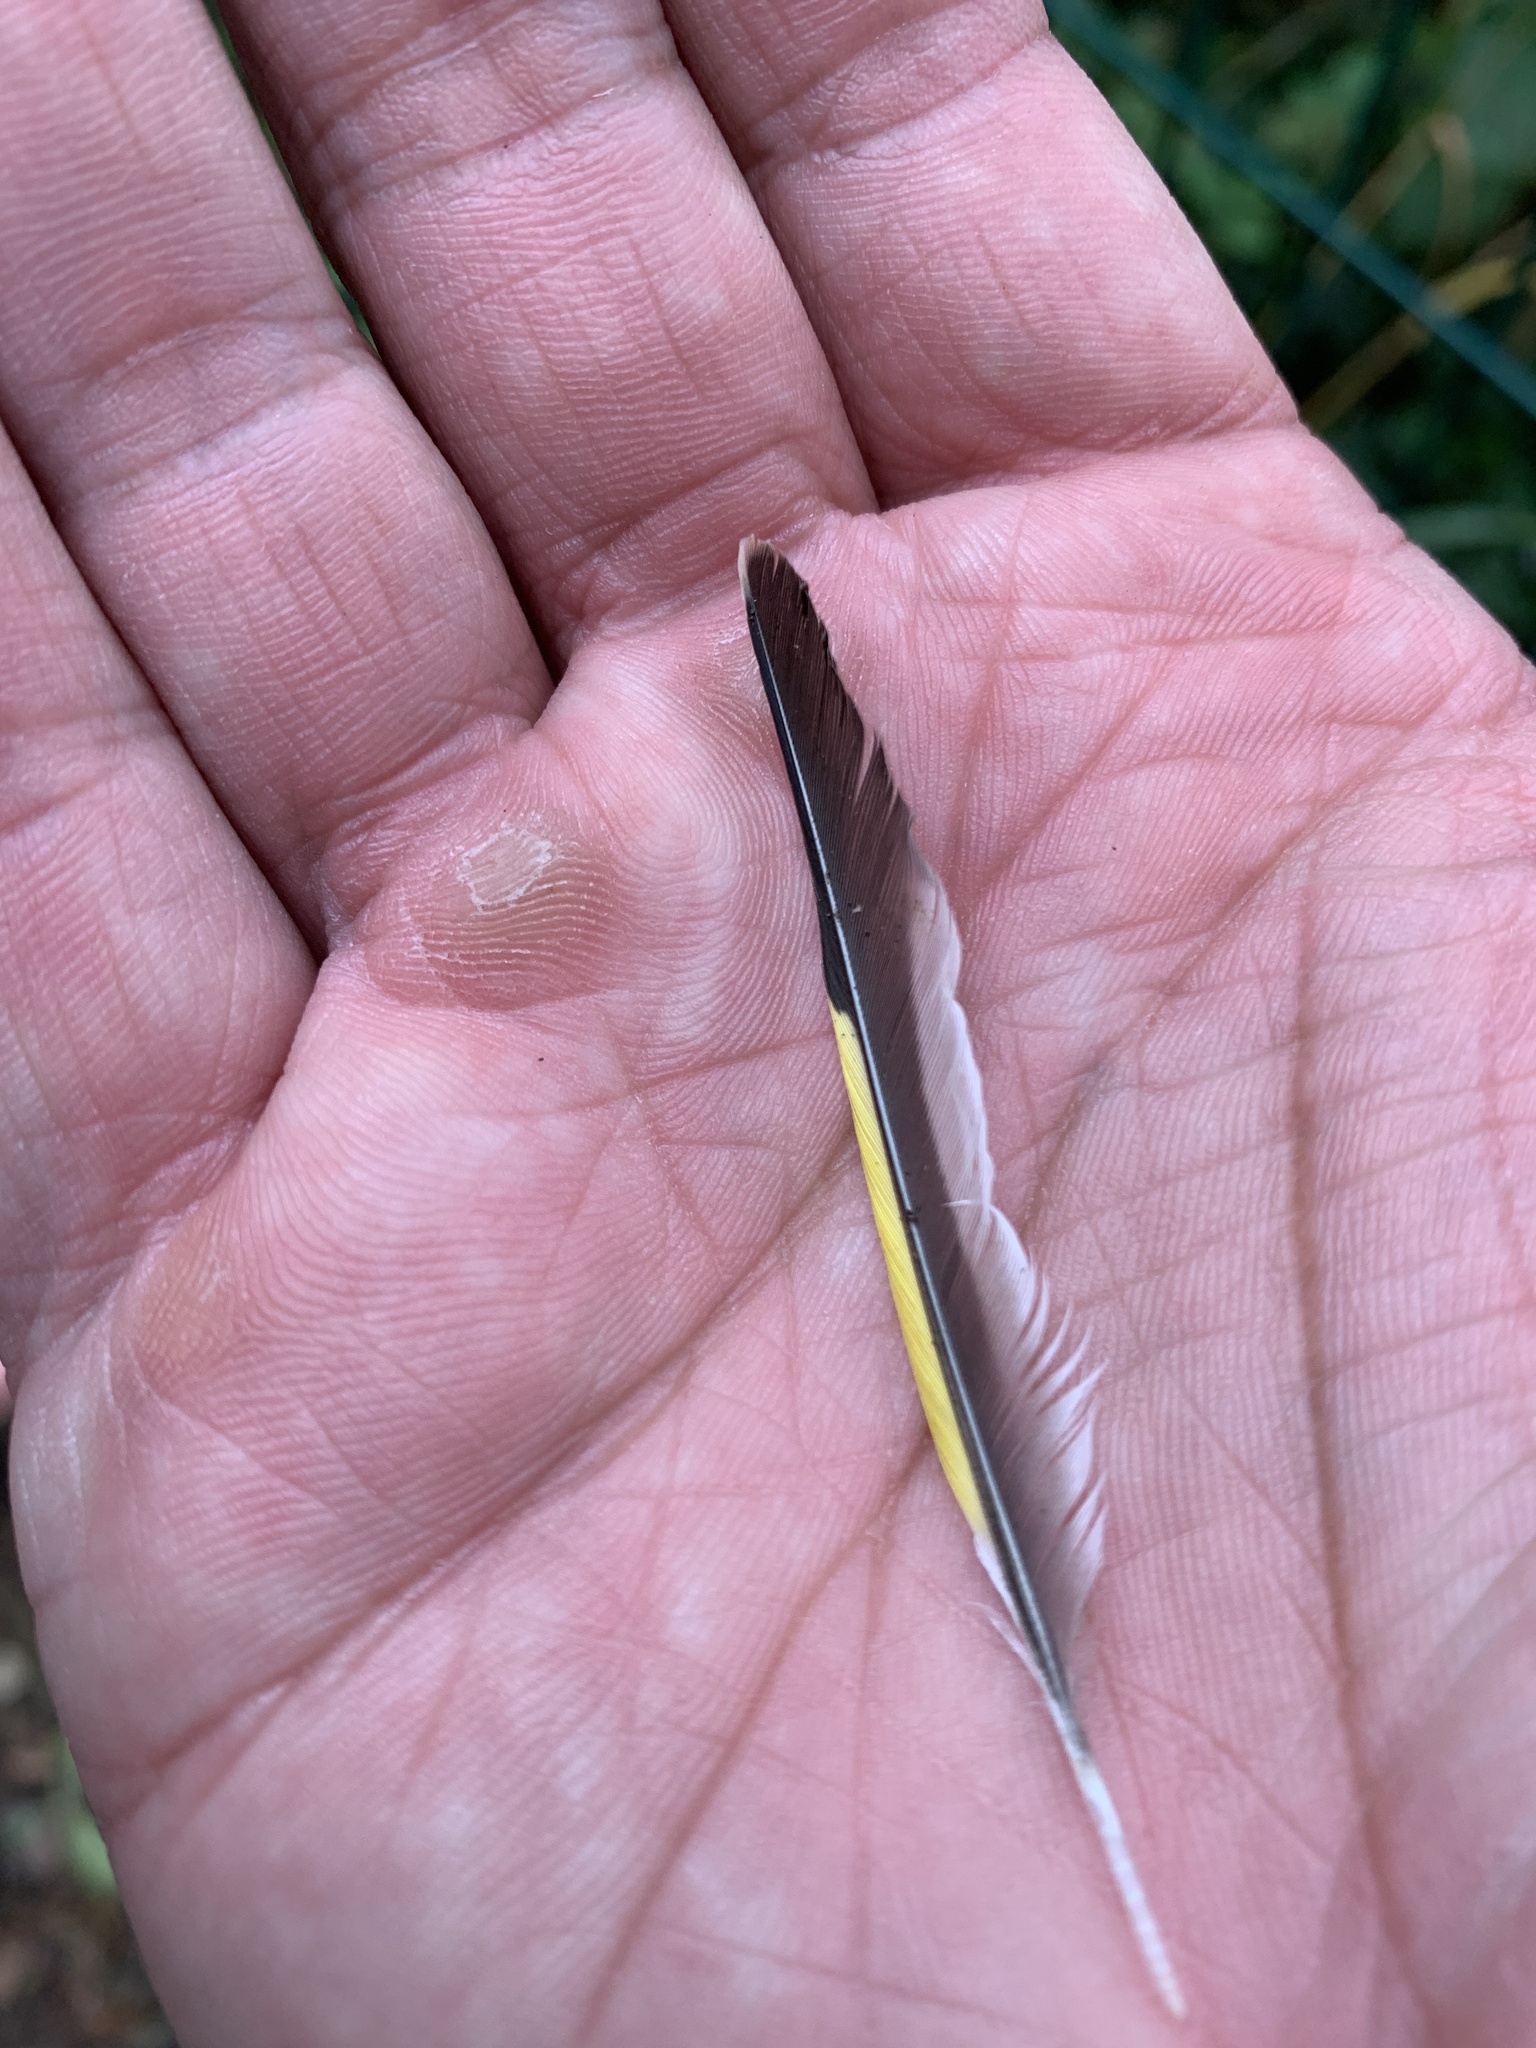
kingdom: Animalia
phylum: Chordata
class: Aves
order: Passeriformes
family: Fringillidae
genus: Carduelis
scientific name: Carduelis carduelis
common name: European goldfinch
